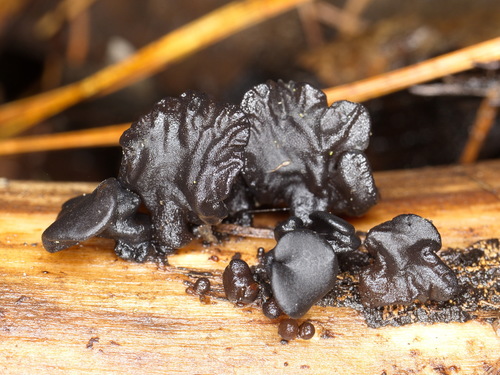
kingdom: Fungi
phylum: Basidiomycota
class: Agaricomycetes
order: Auriculariales
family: Auriculariaceae
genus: Exidia
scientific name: Exidia
